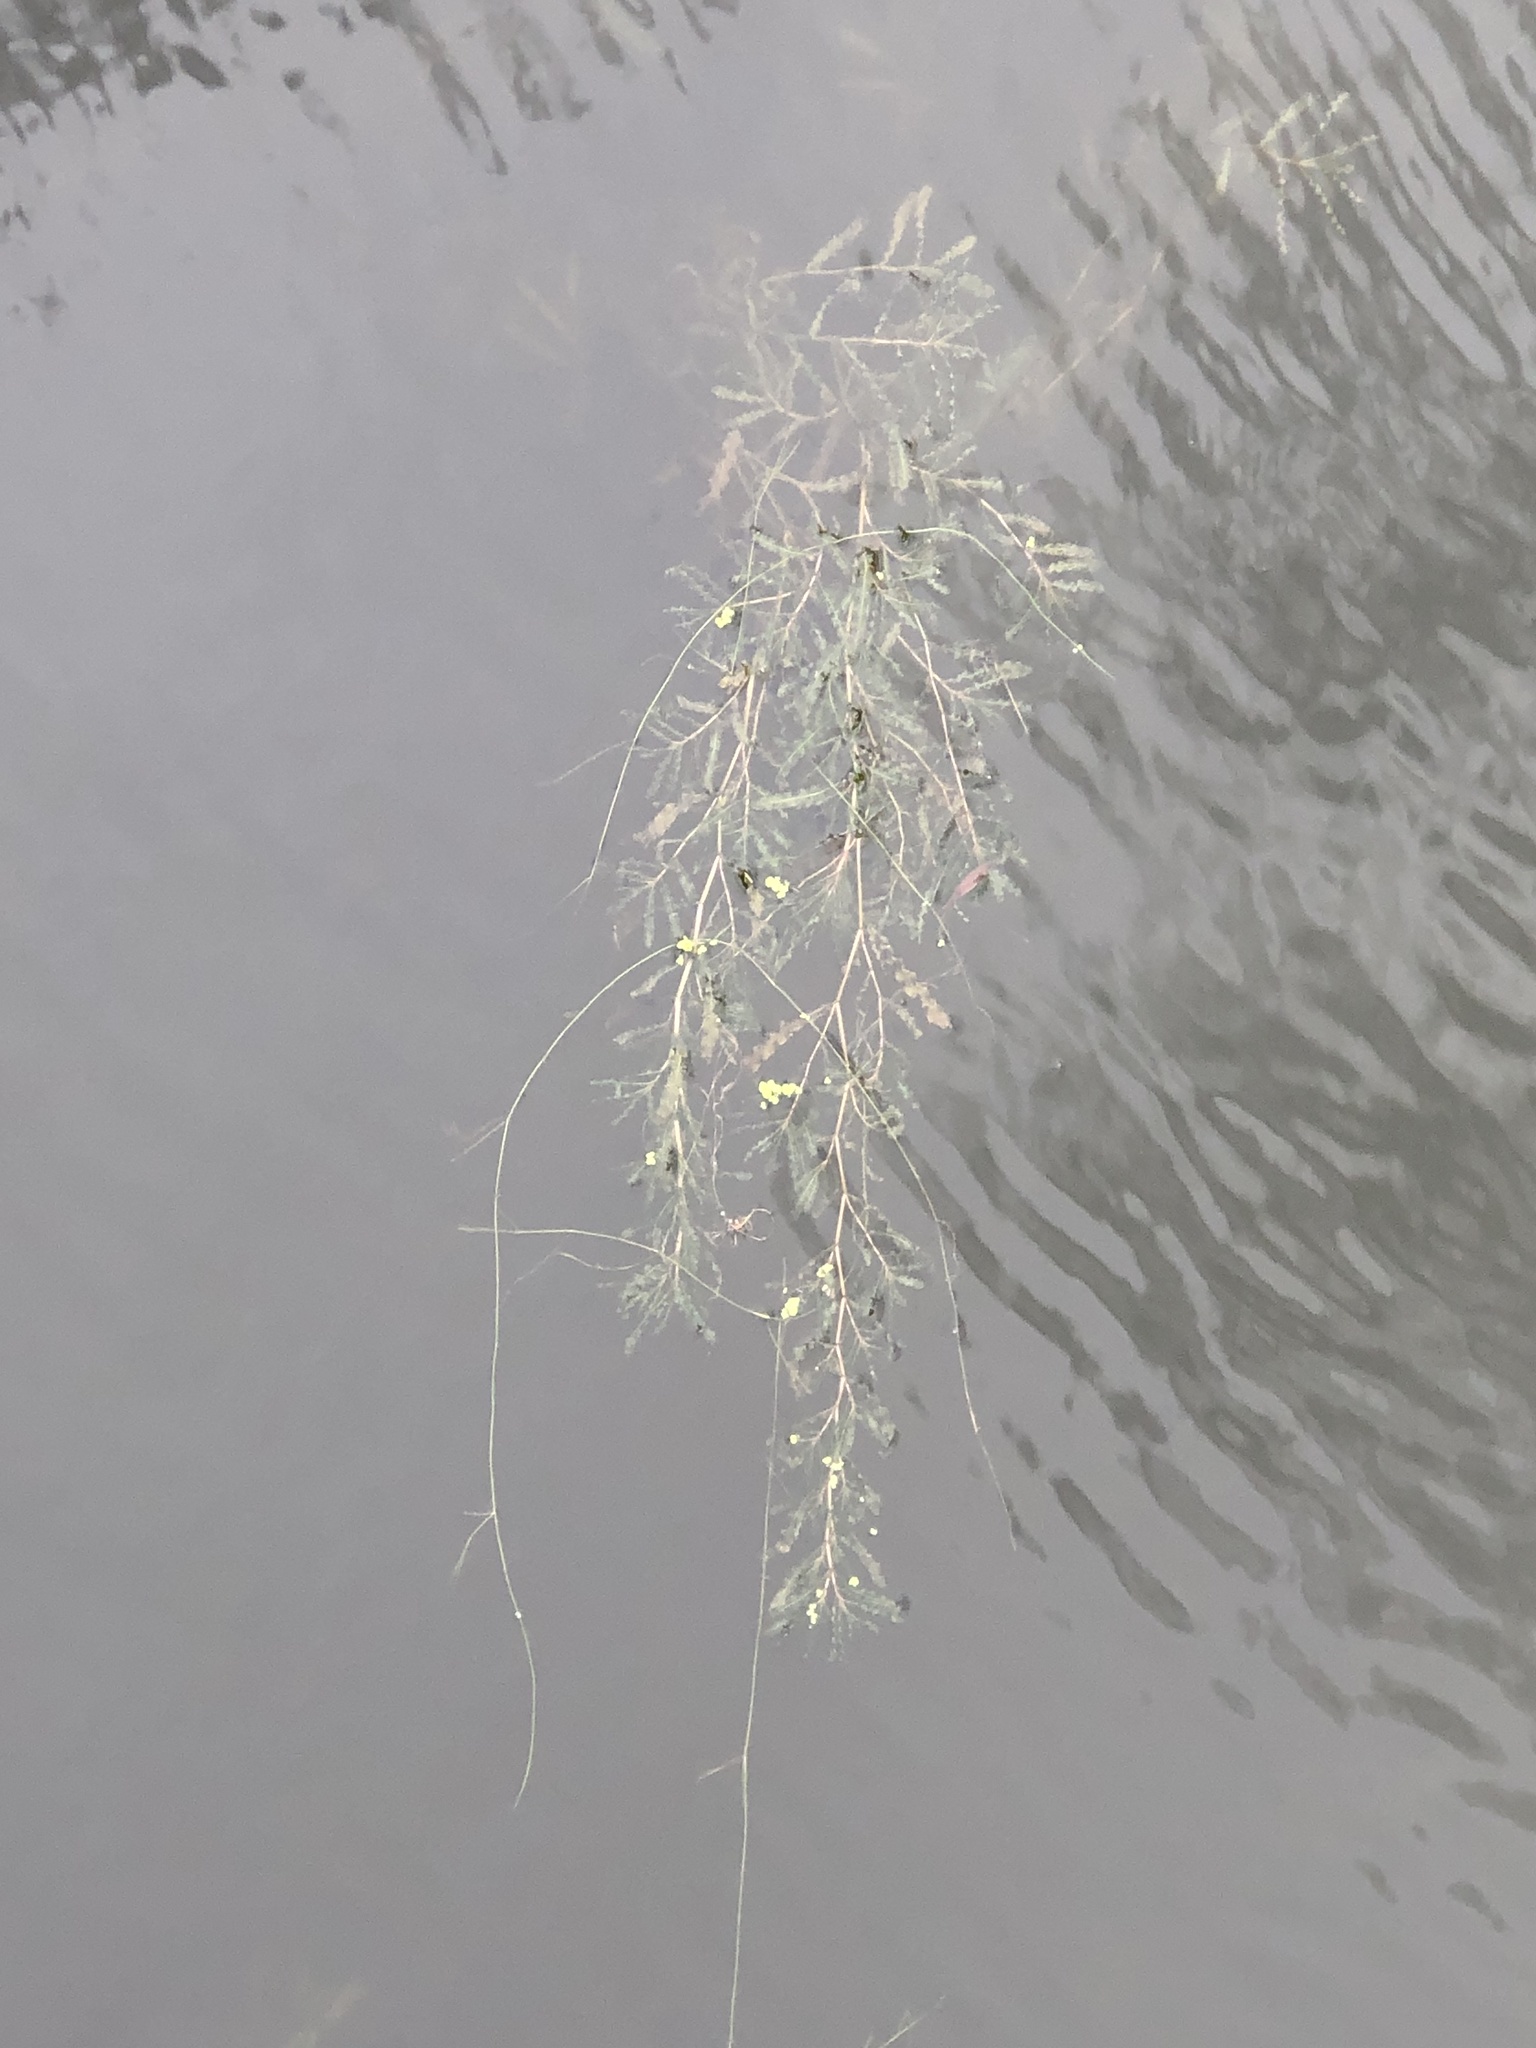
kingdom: Plantae
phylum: Tracheophyta
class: Liliopsida
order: Alismatales
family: Potamogetonaceae
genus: Potamogeton
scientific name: Potamogeton crispus
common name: Curled pondweed
